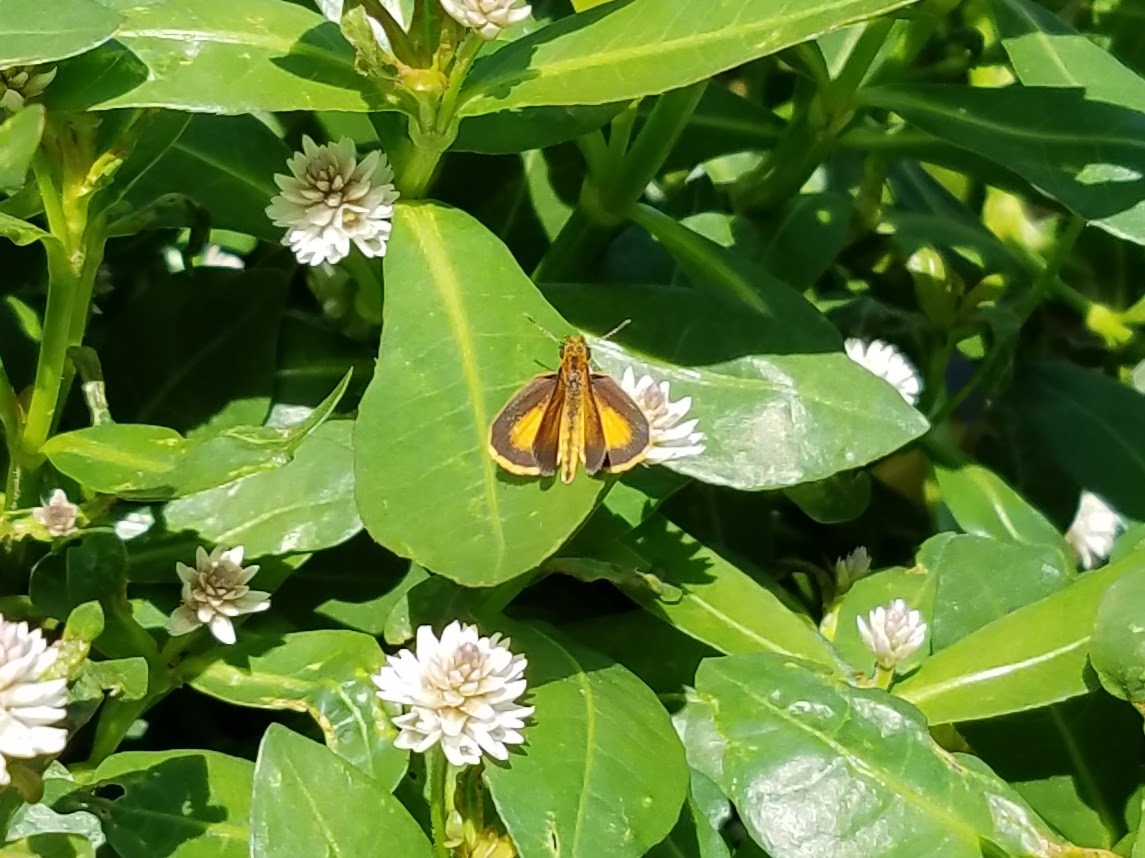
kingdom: Animalia
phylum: Arthropoda
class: Insecta
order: Lepidoptera
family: Hesperiidae
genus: Ancyloxypha
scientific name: Ancyloxypha numitor
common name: Least skipper
